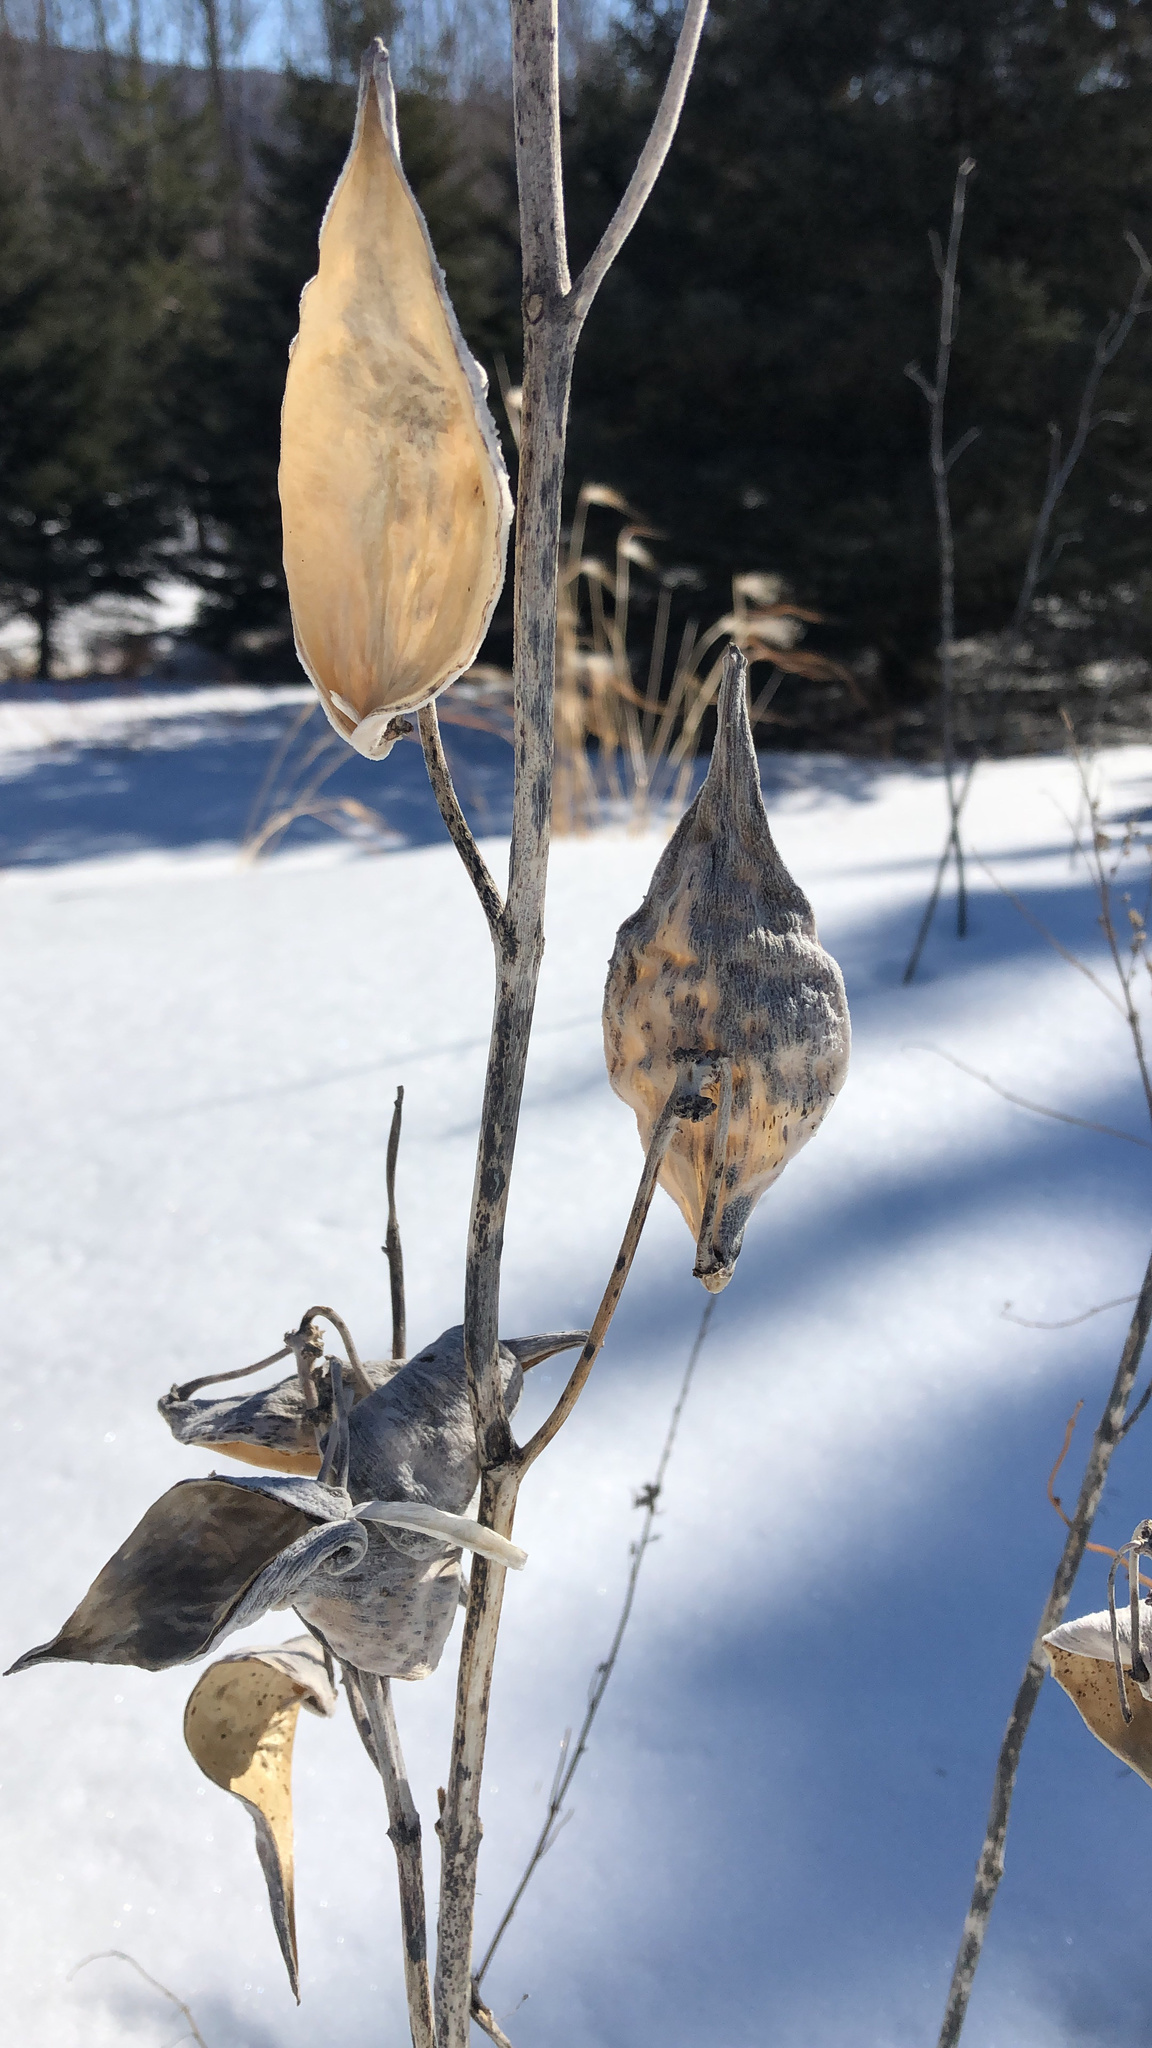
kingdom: Plantae
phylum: Tracheophyta
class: Magnoliopsida
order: Gentianales
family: Apocynaceae
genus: Asclepias
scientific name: Asclepias syriaca
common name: Common milkweed
